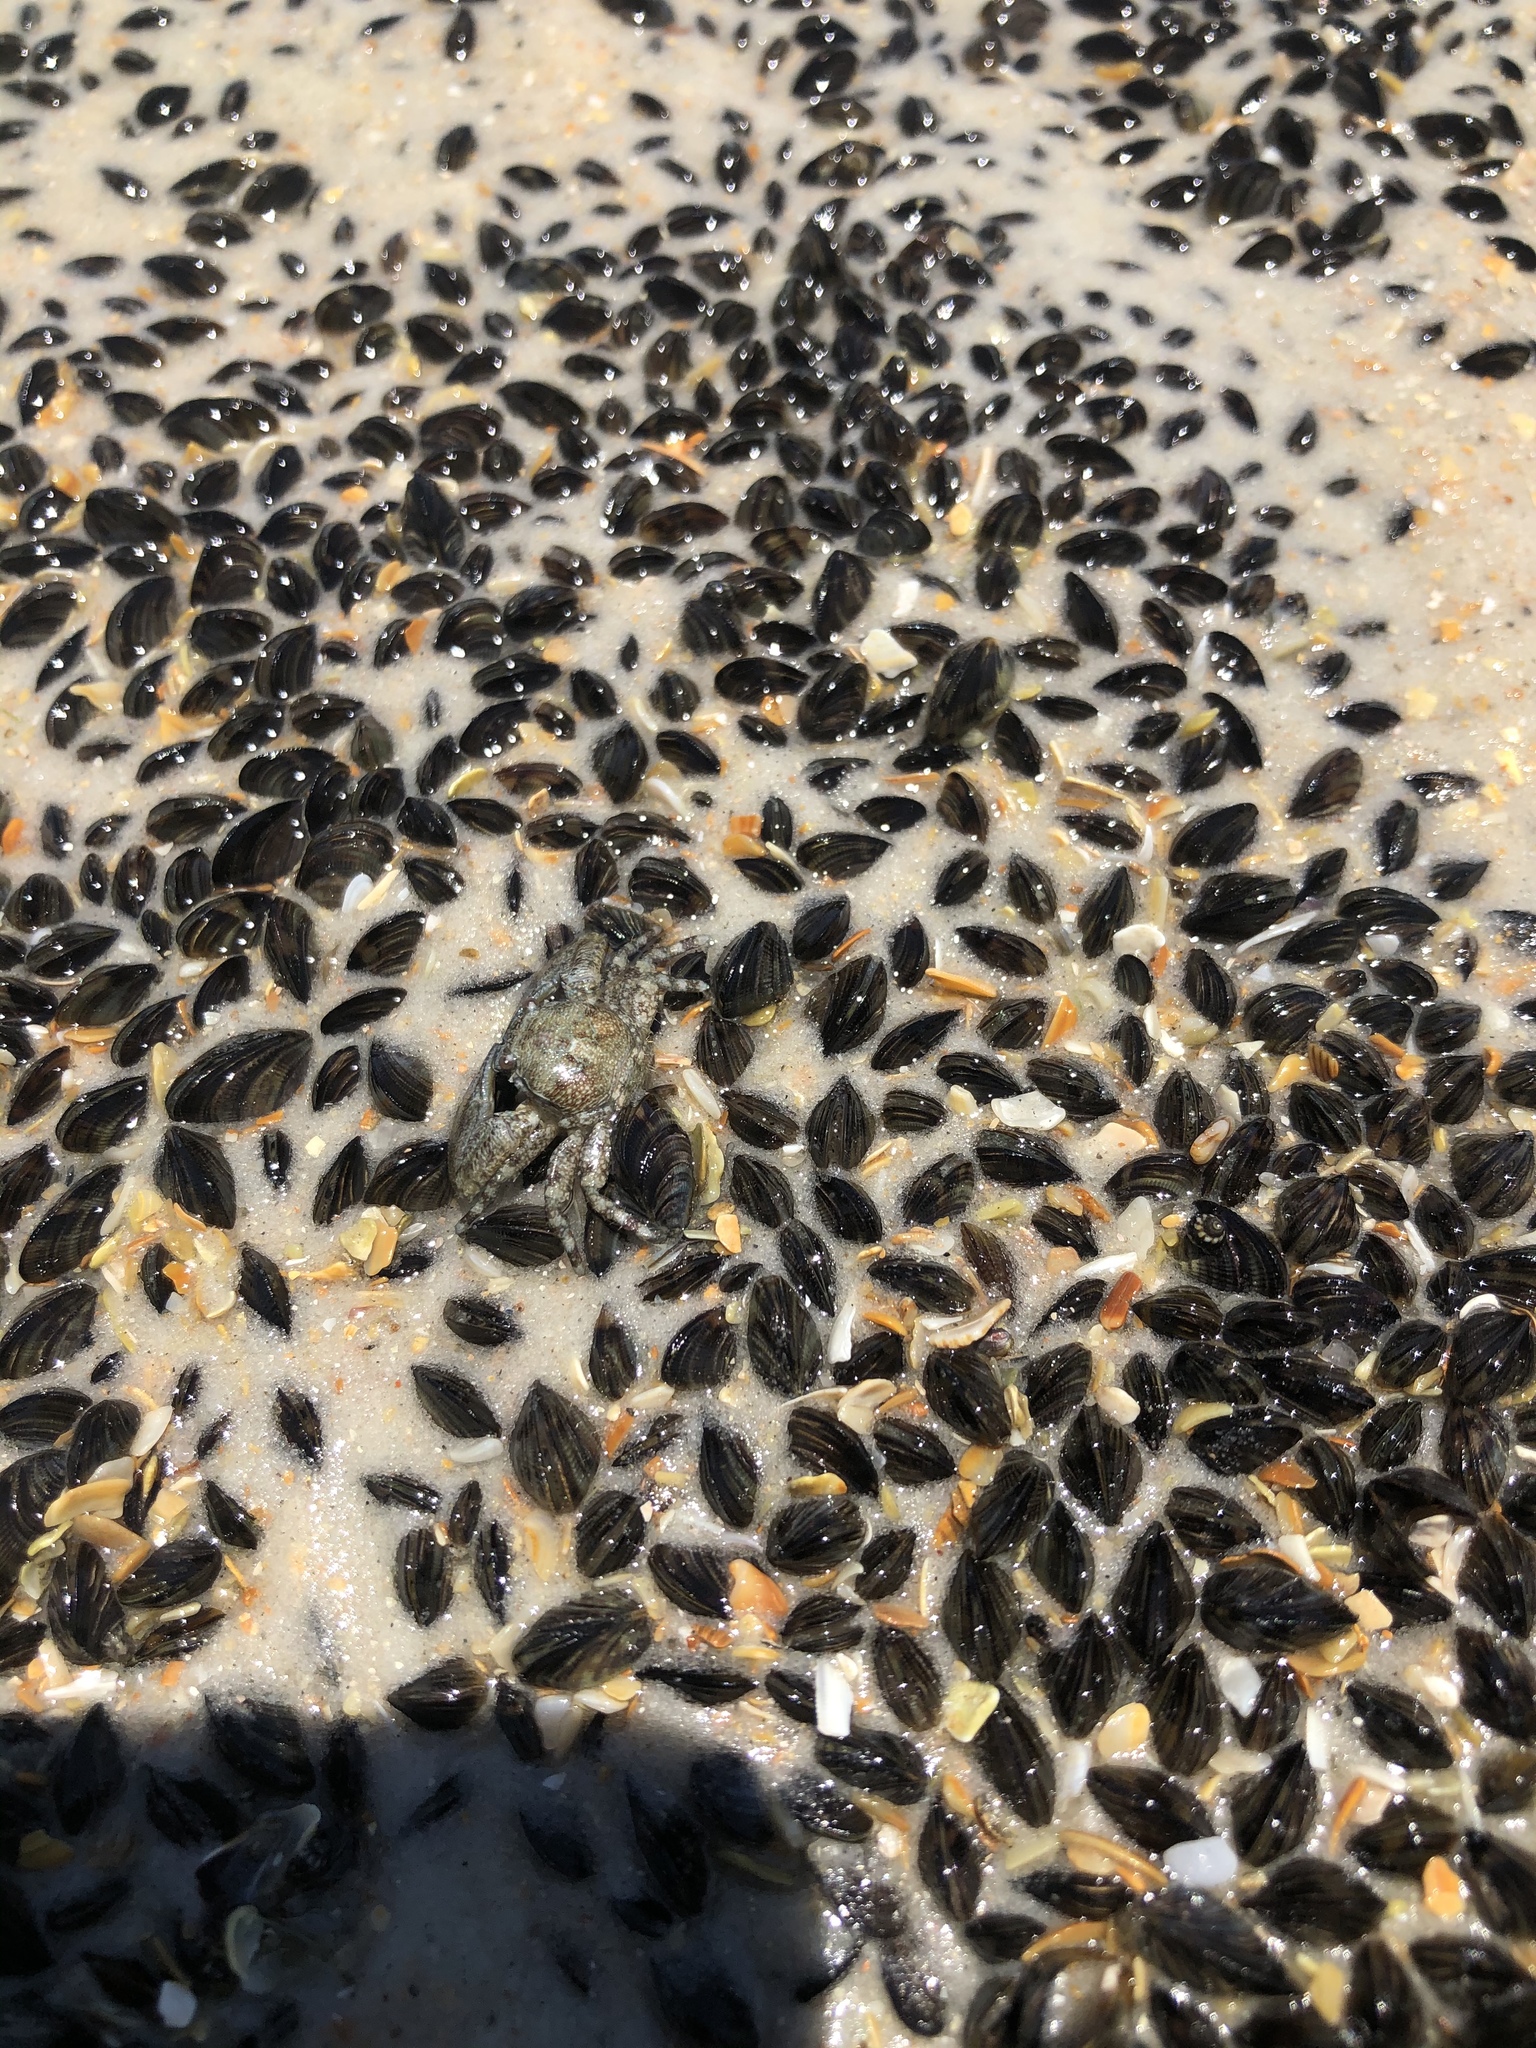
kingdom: Animalia
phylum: Arthropoda
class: Malacostraca
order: Decapoda
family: Porcellanidae
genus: Petrolisthes
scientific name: Petrolisthes armatus
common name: Green porcelain crab
